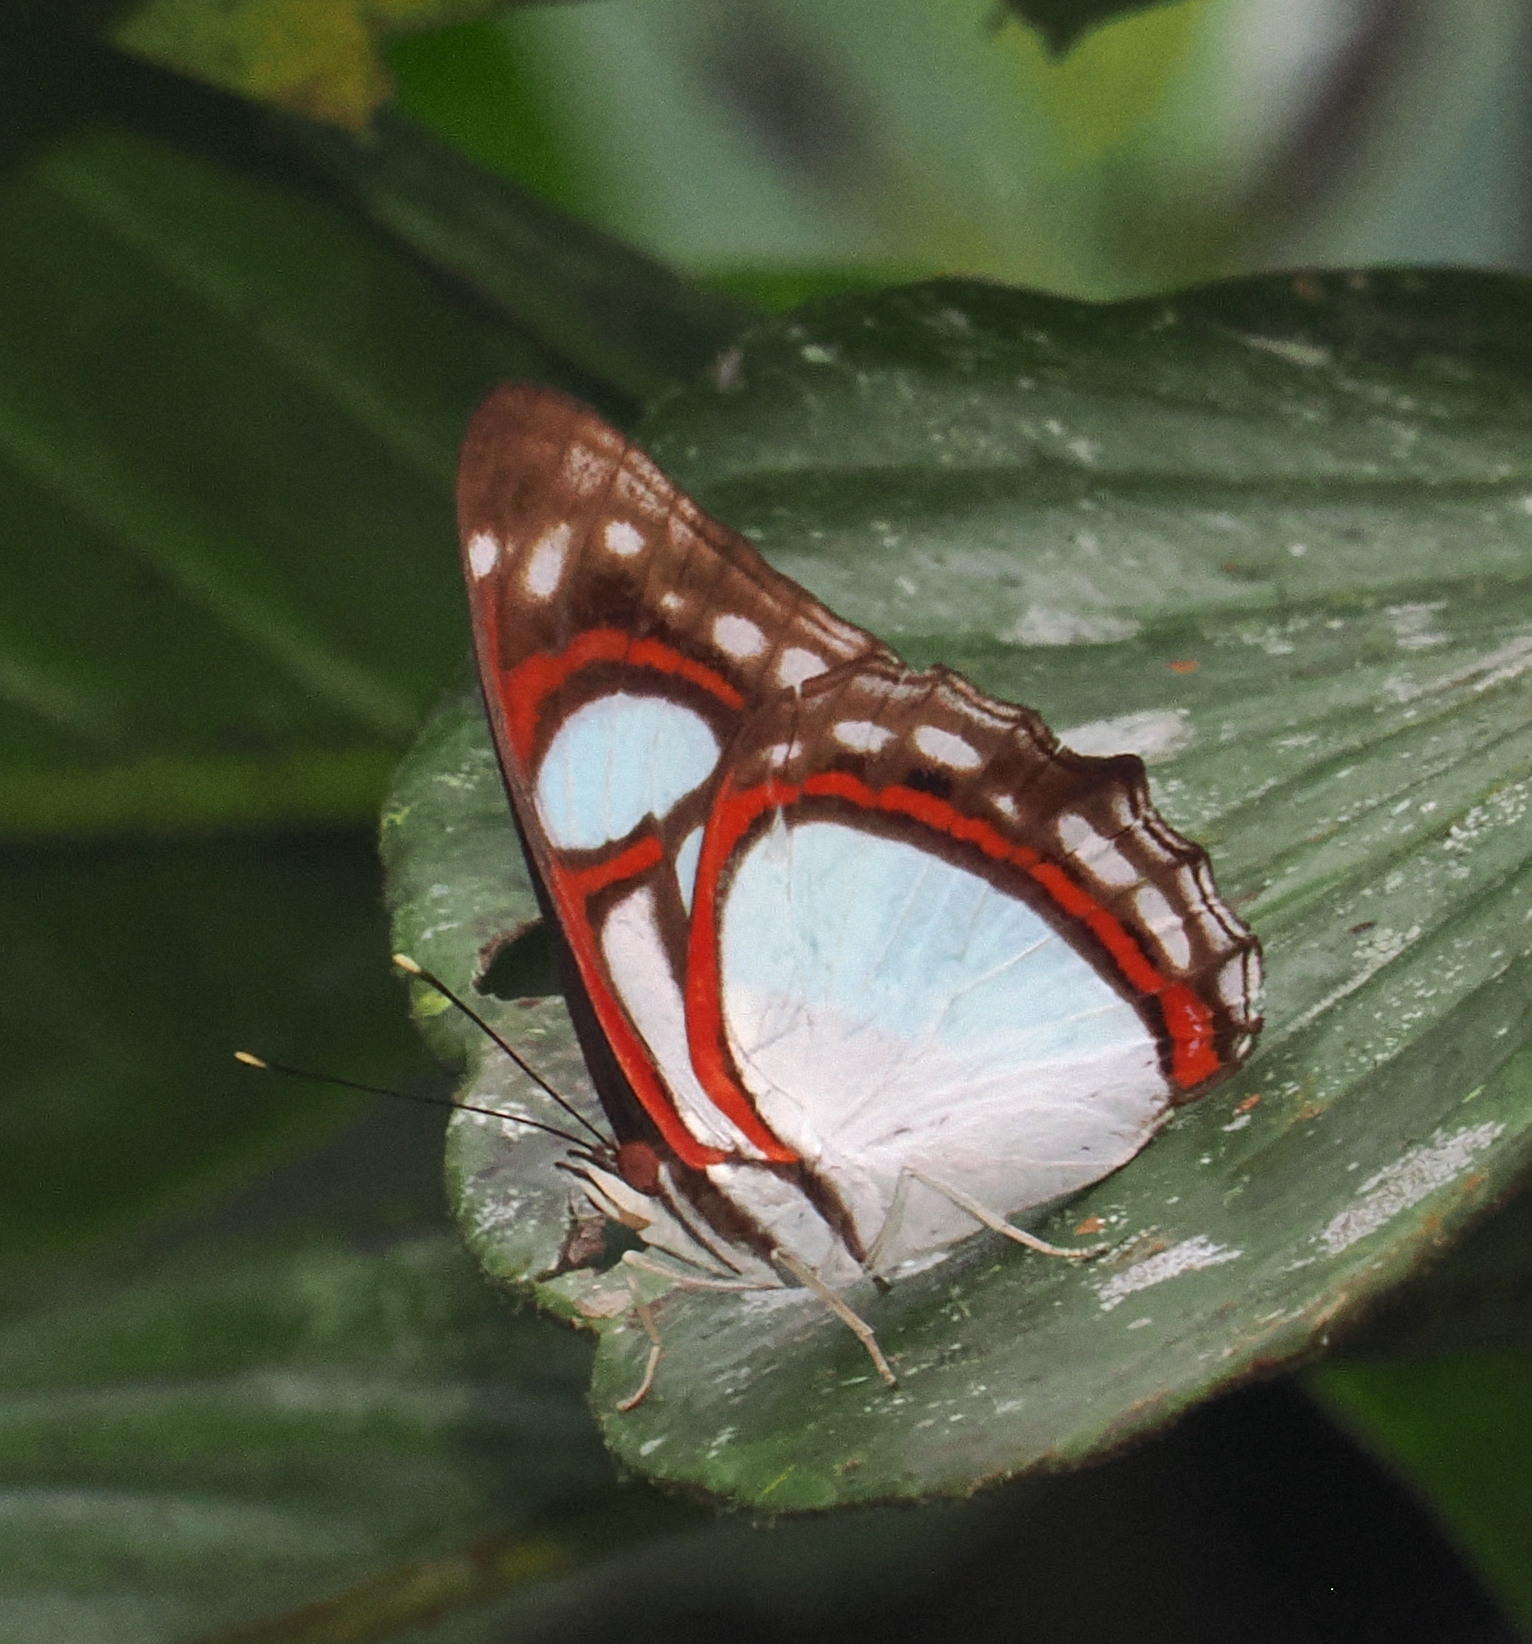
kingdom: Animalia
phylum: Arthropoda
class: Insecta
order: Lepidoptera
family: Nymphalidae
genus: Pyrrhogyra
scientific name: Pyrrhogyra amphiro
